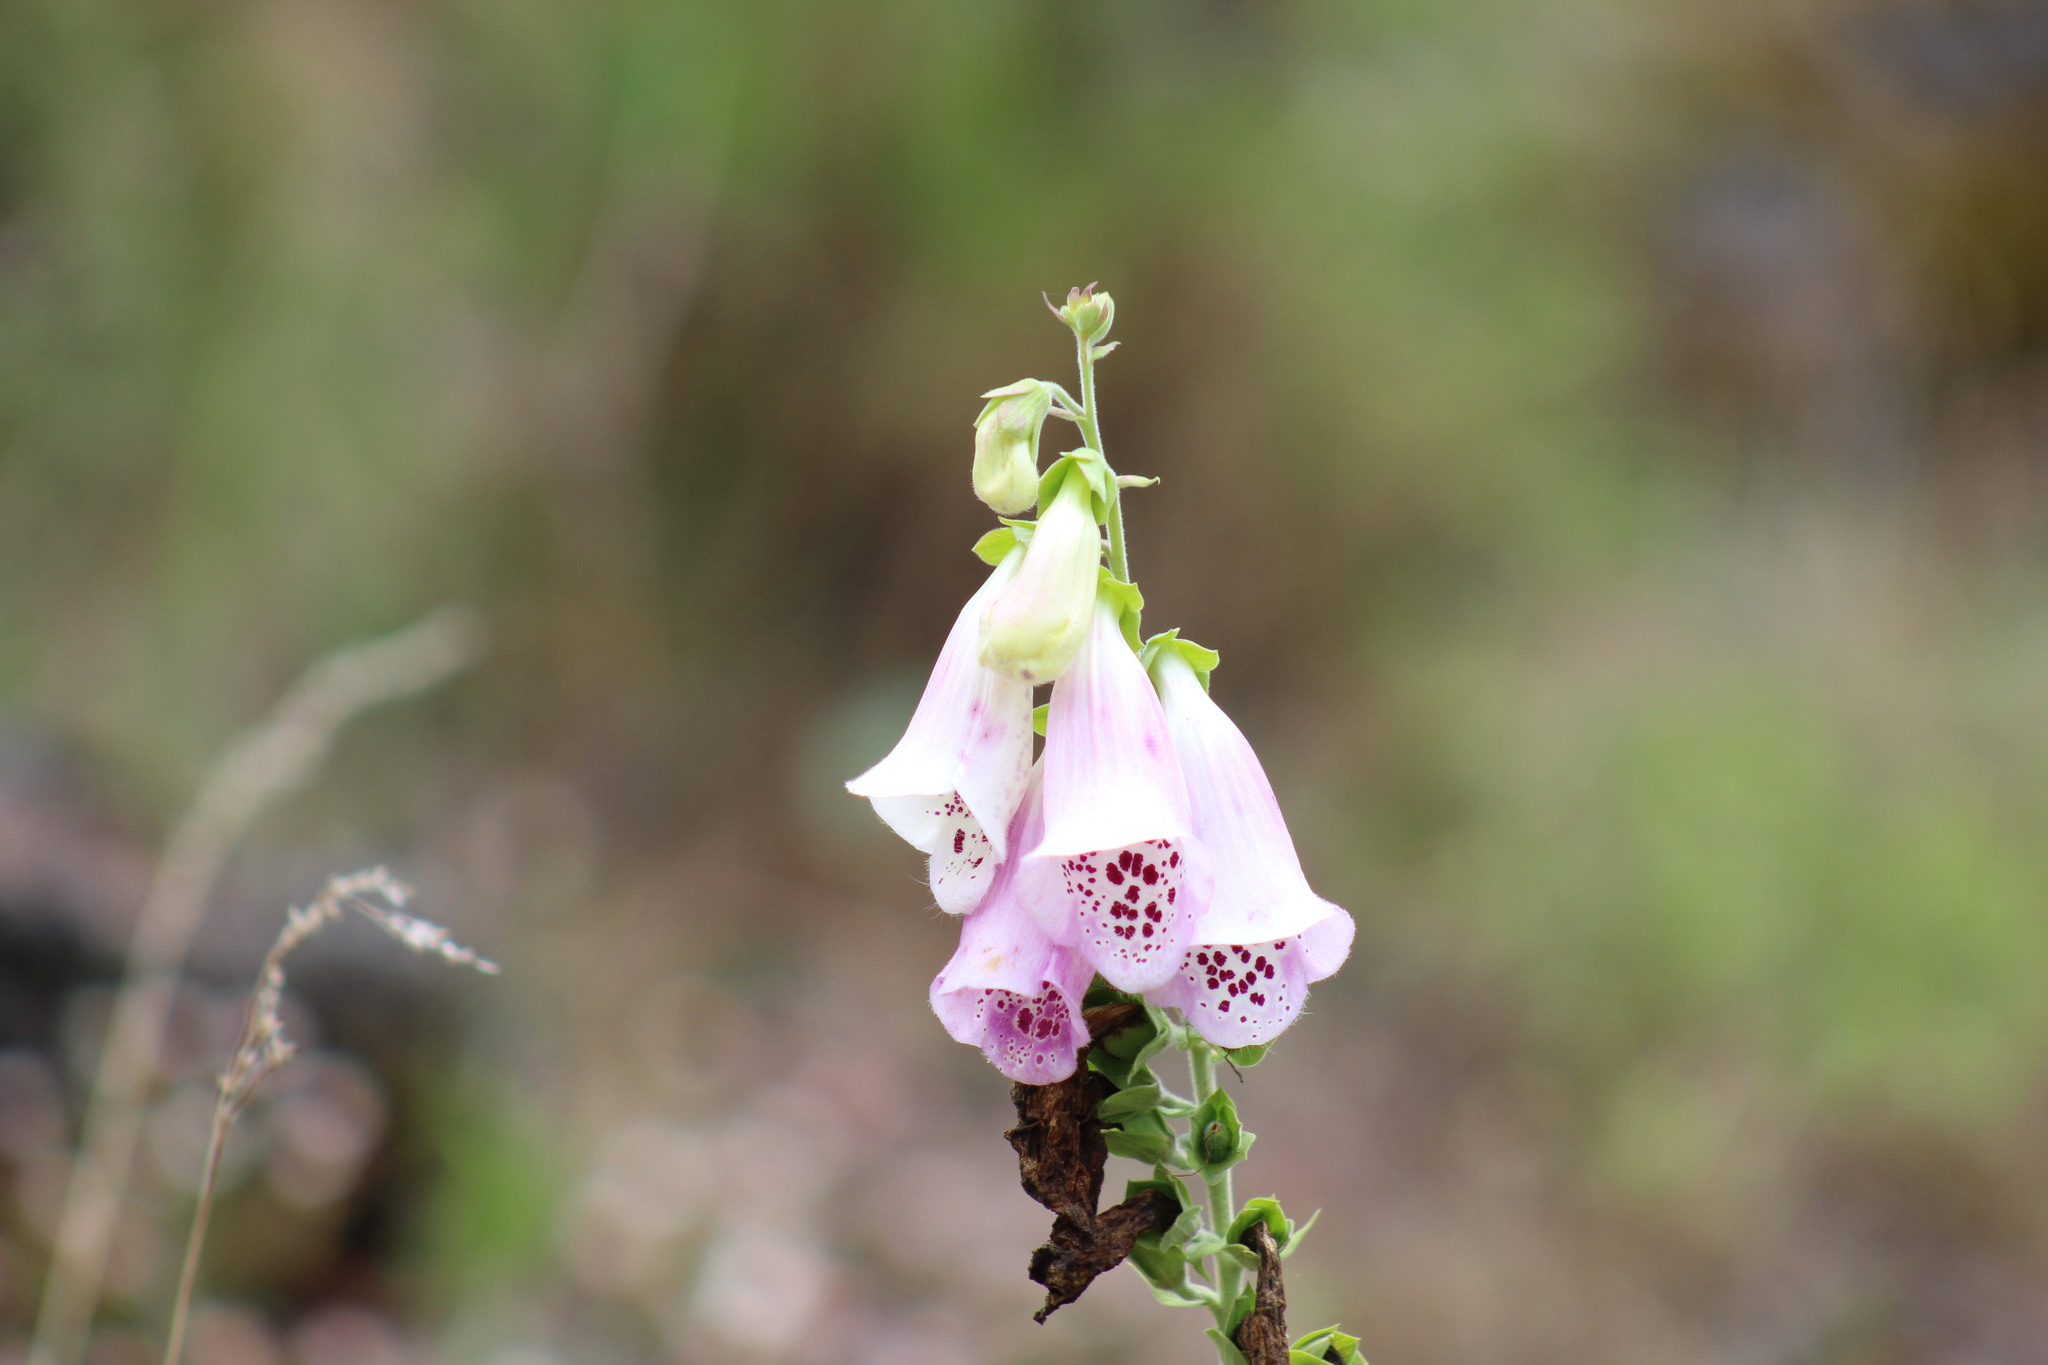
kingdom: Plantae
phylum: Tracheophyta
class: Magnoliopsida
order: Lamiales
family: Plantaginaceae
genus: Digitalis
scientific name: Digitalis purpurea
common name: Foxglove
